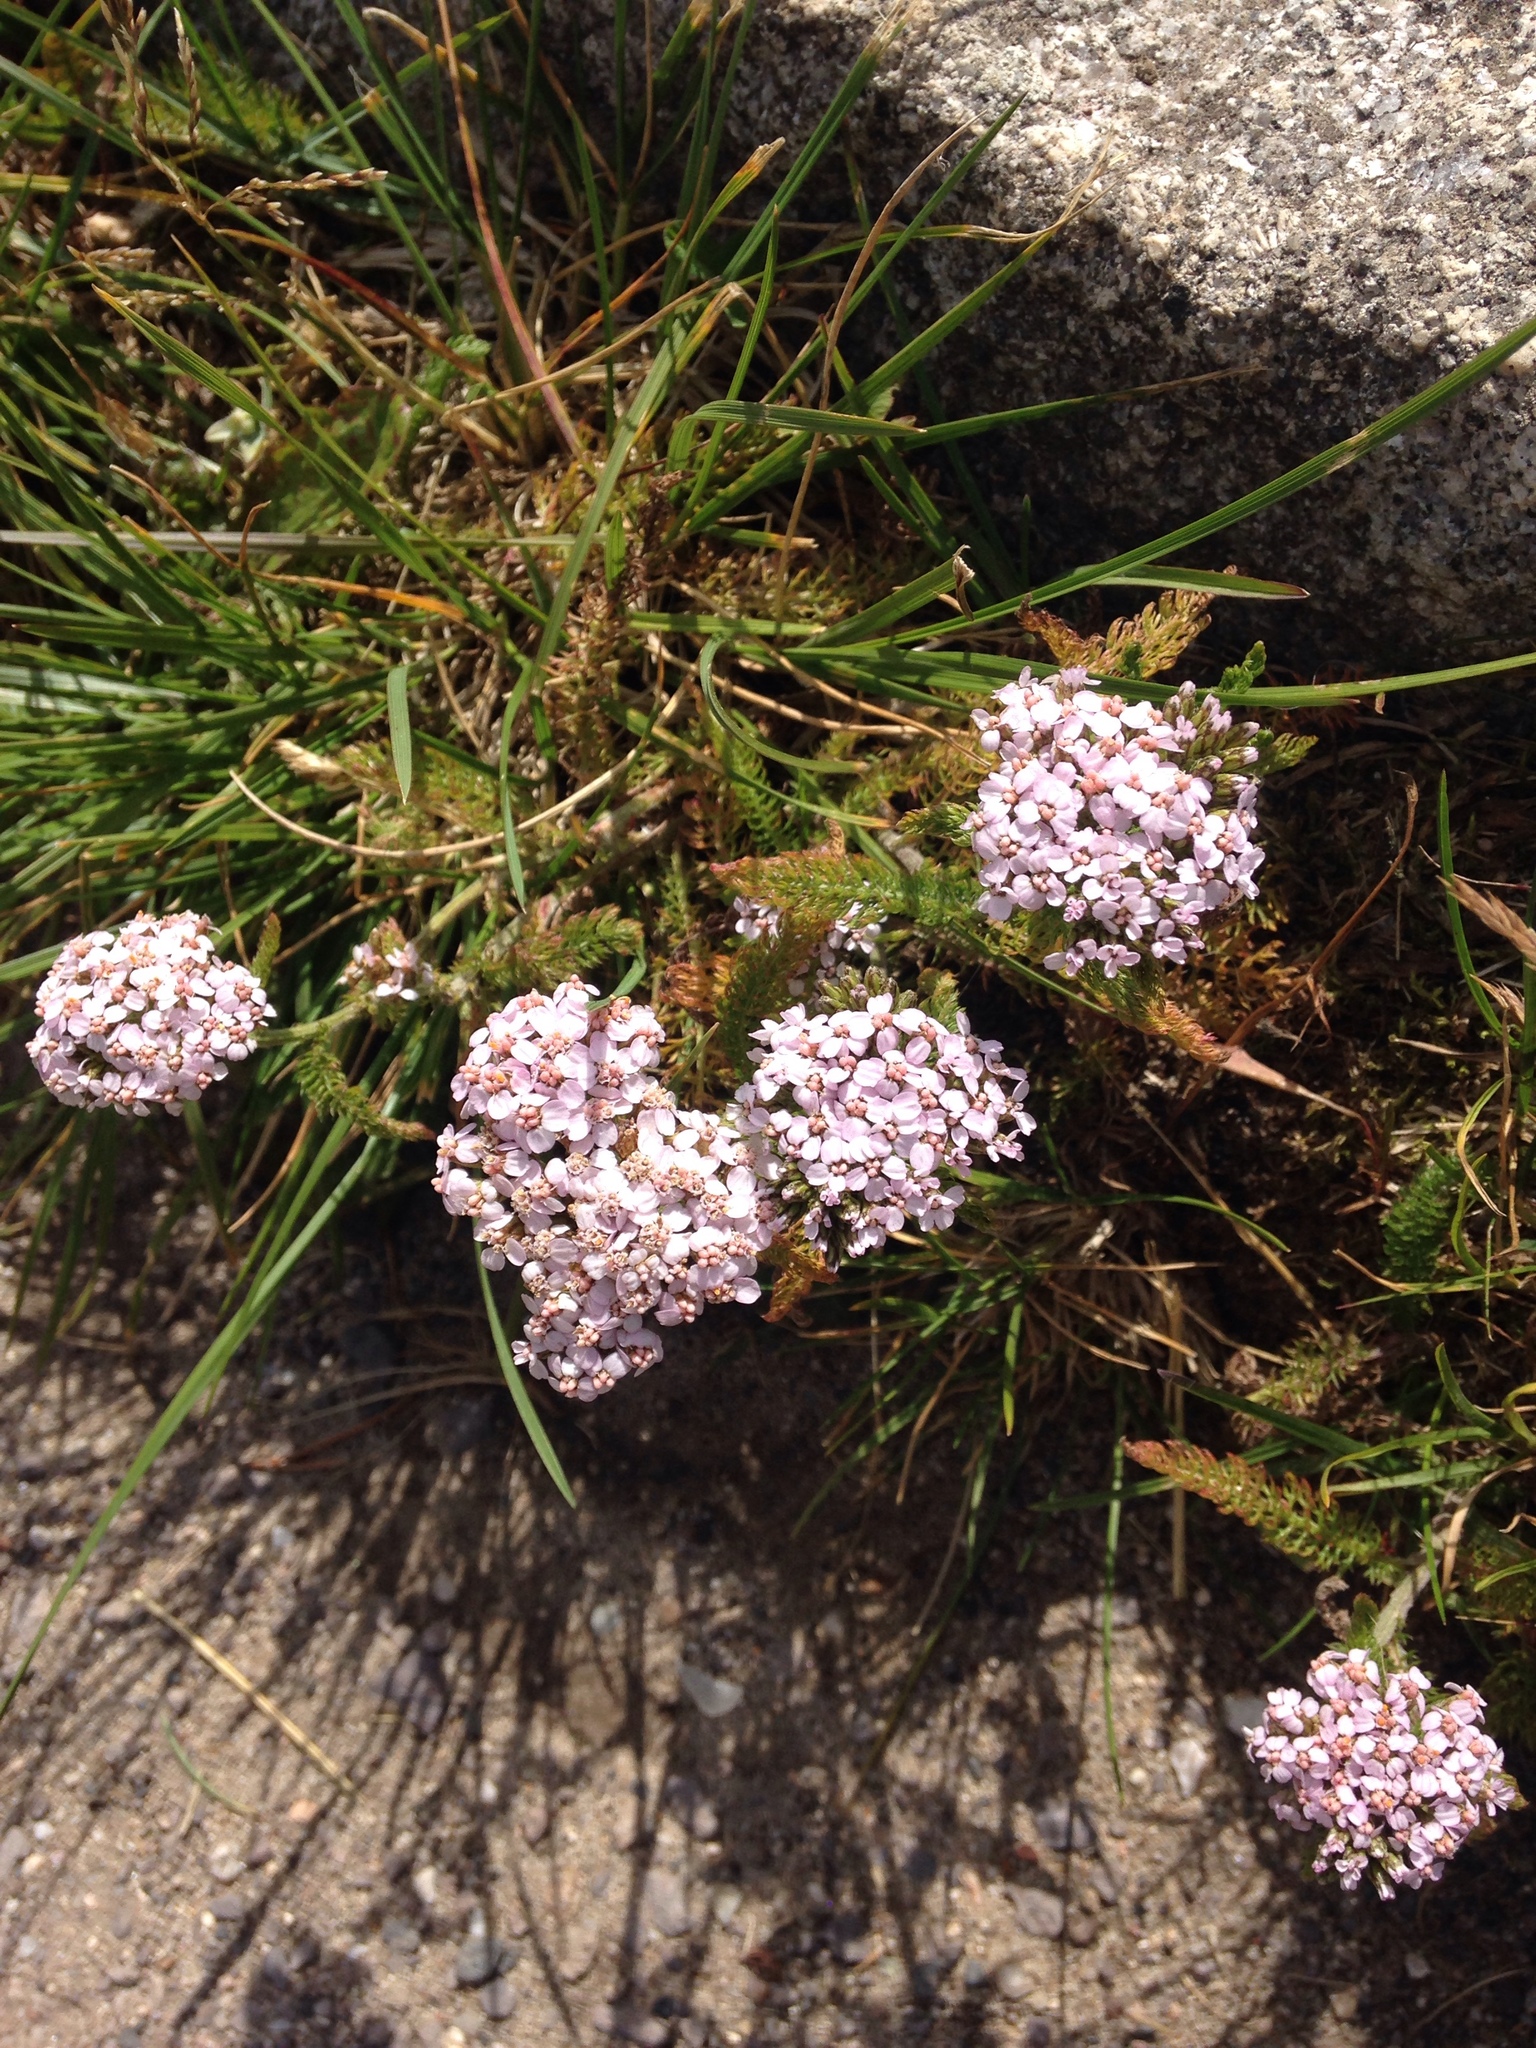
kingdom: Plantae
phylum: Tracheophyta
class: Magnoliopsida
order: Asterales
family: Asteraceae
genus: Achillea
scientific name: Achillea millefolium
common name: Yarrow
